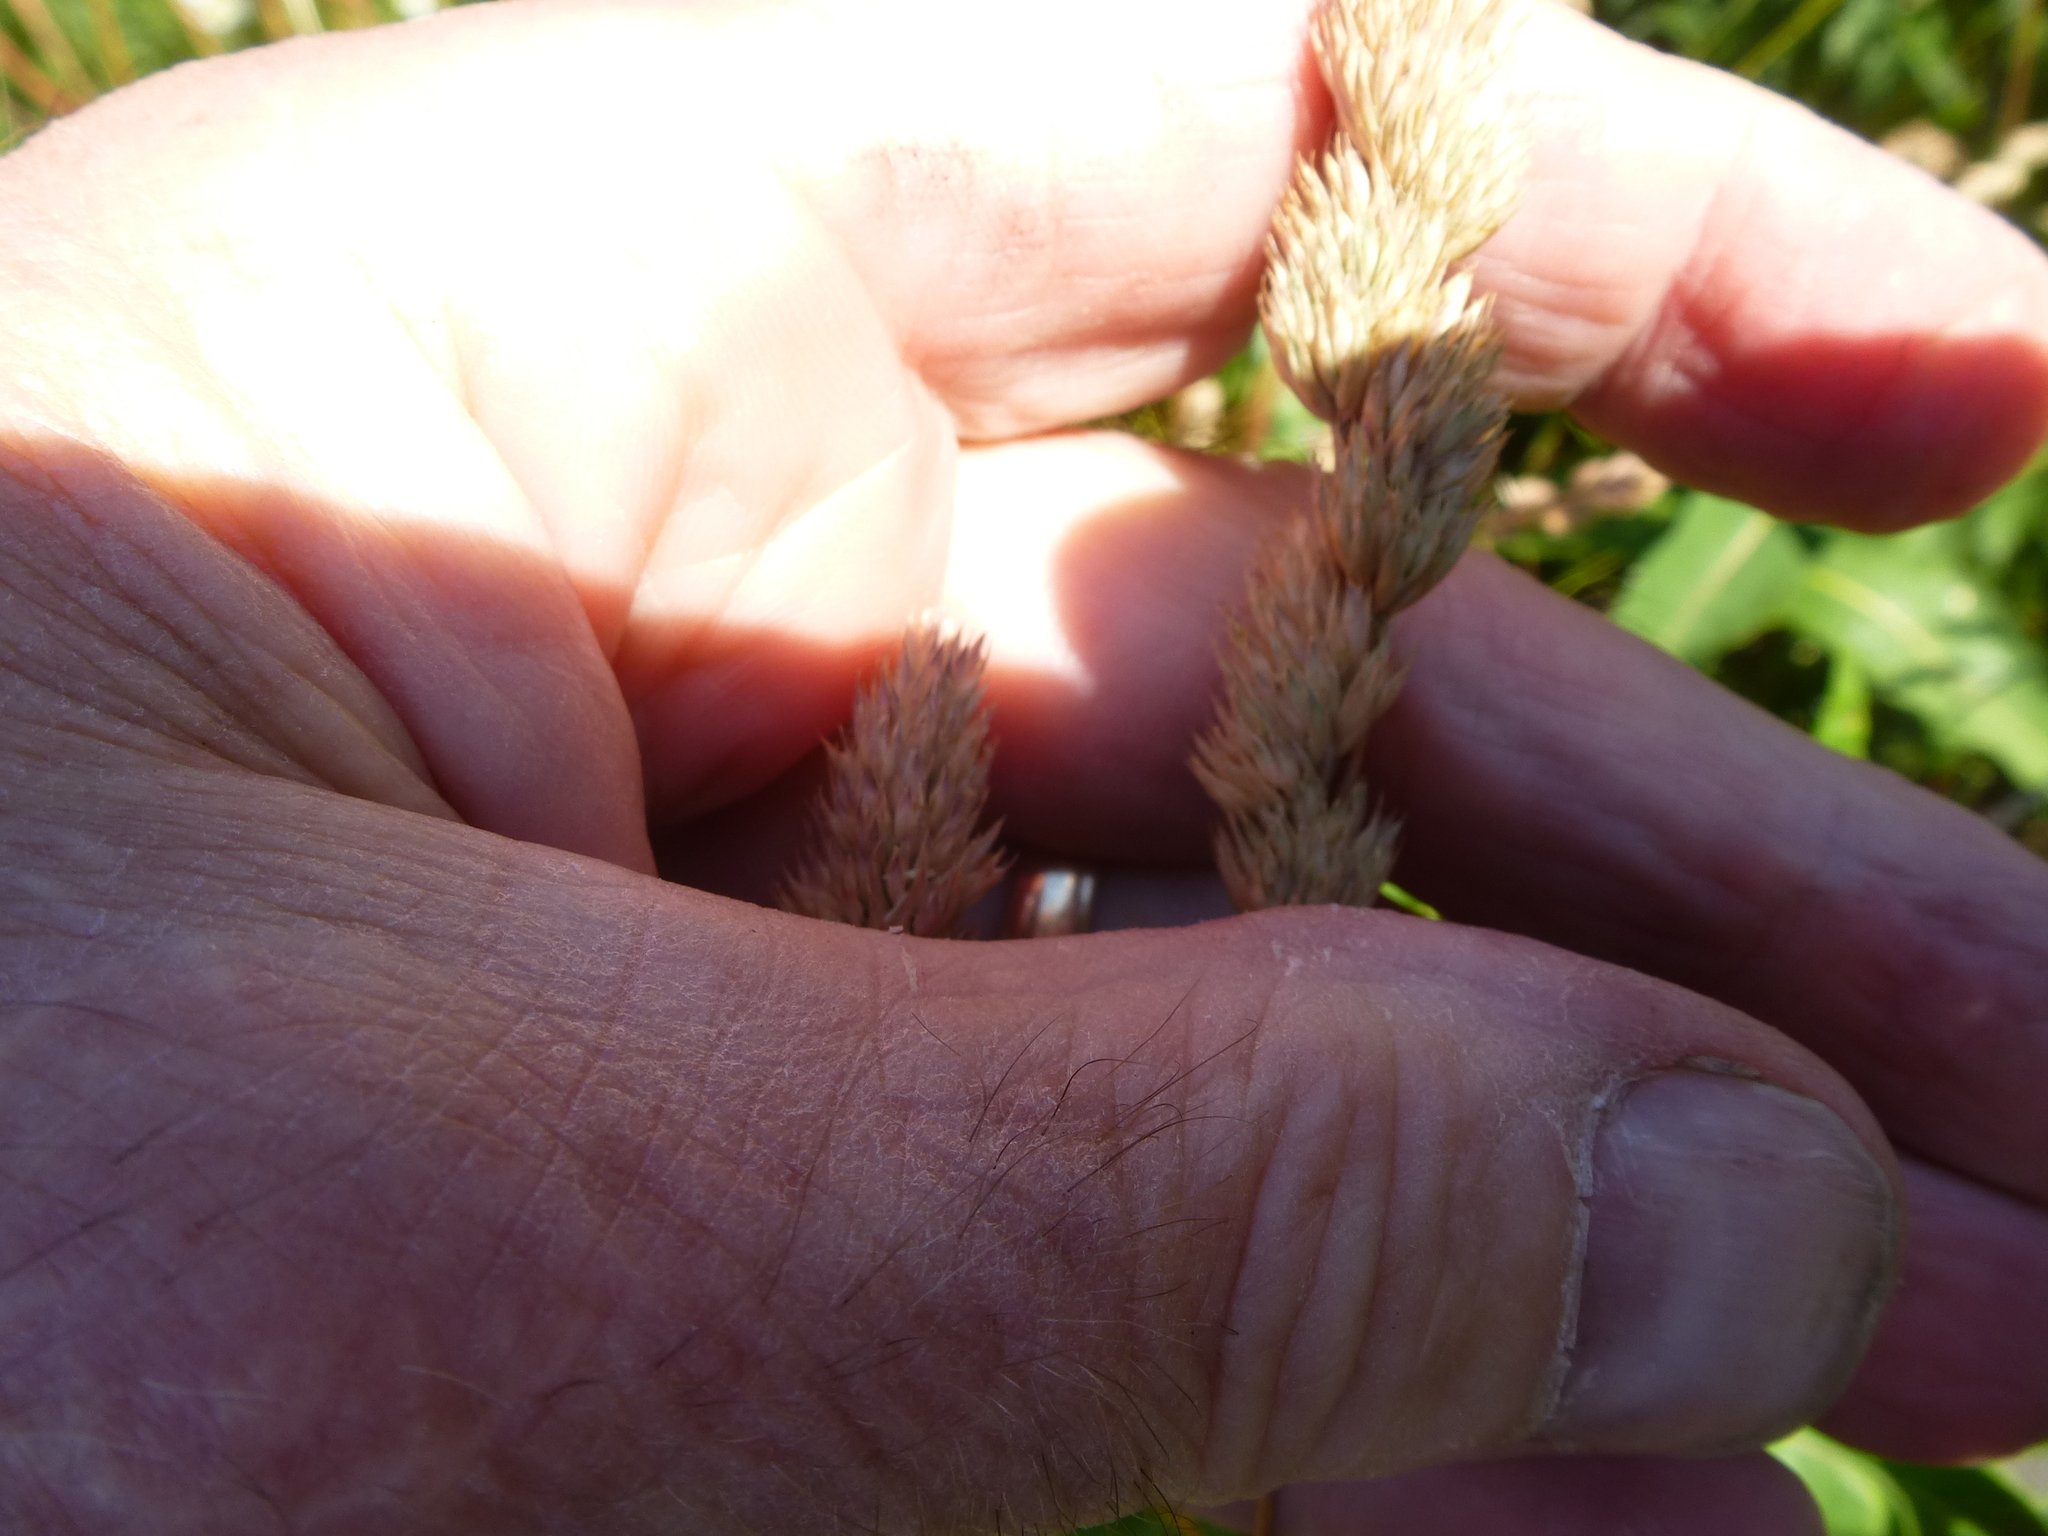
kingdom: Plantae
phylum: Tracheophyta
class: Liliopsida
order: Poales
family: Poaceae
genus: Dactylis
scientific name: Dactylis glomerata
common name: Orchardgrass
